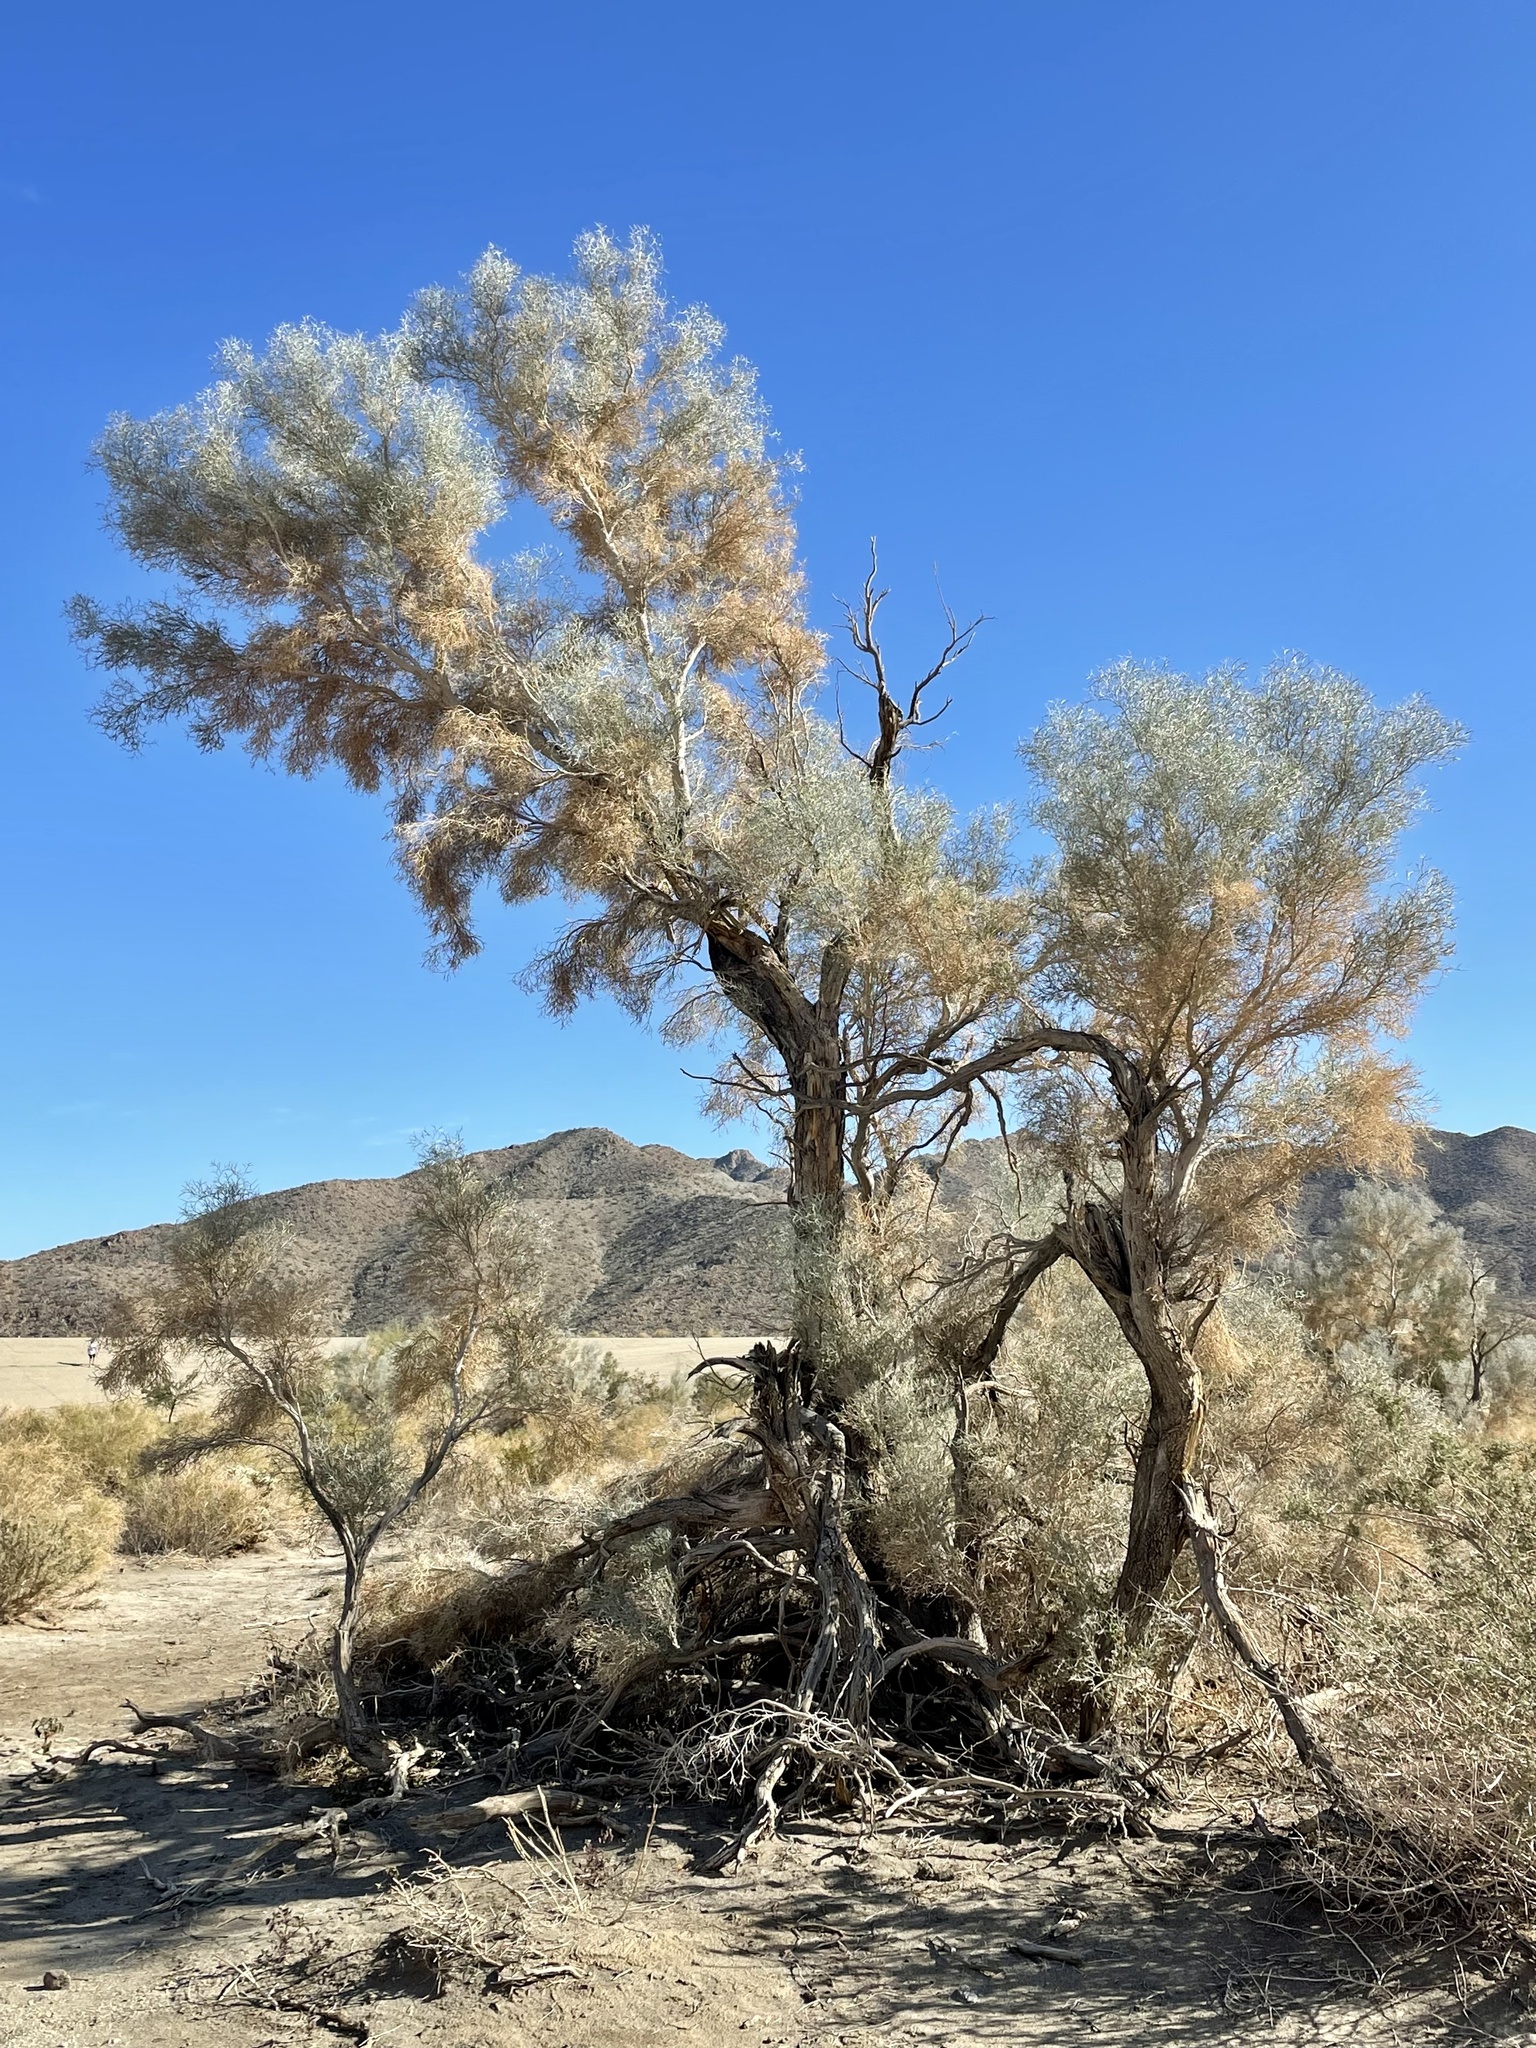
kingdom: Plantae
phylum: Tracheophyta
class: Magnoliopsida
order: Fabales
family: Fabaceae
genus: Psorothamnus
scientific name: Psorothamnus spinosus
